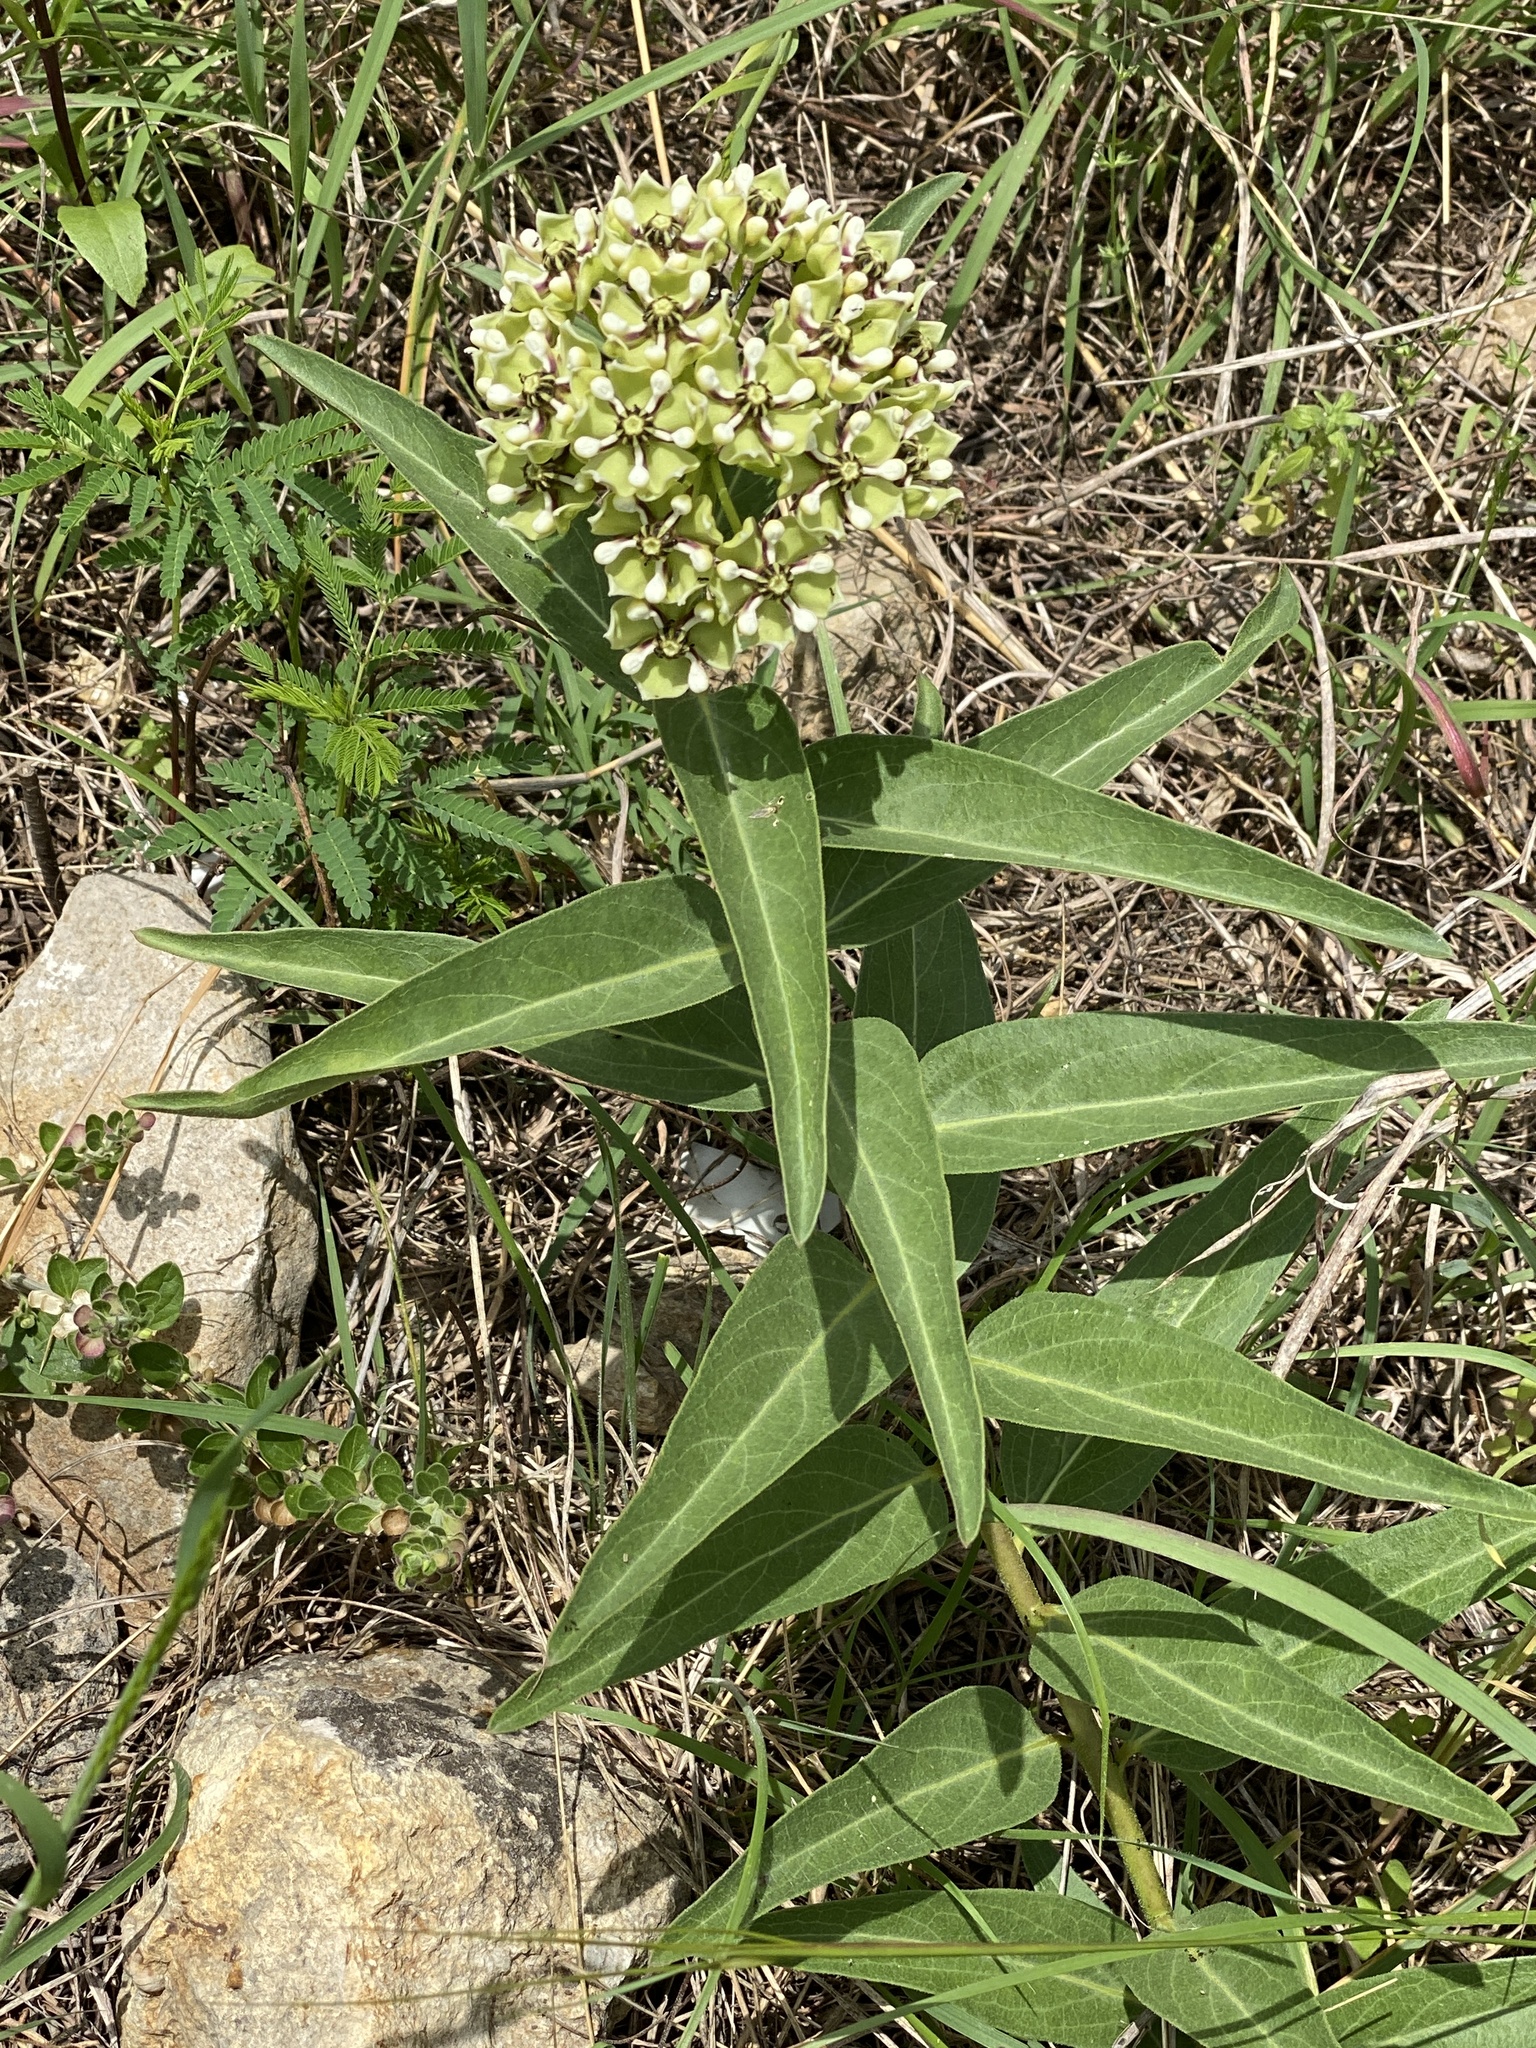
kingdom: Plantae
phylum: Tracheophyta
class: Magnoliopsida
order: Gentianales
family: Apocynaceae
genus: Asclepias
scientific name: Asclepias asperula
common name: Antelope horns
